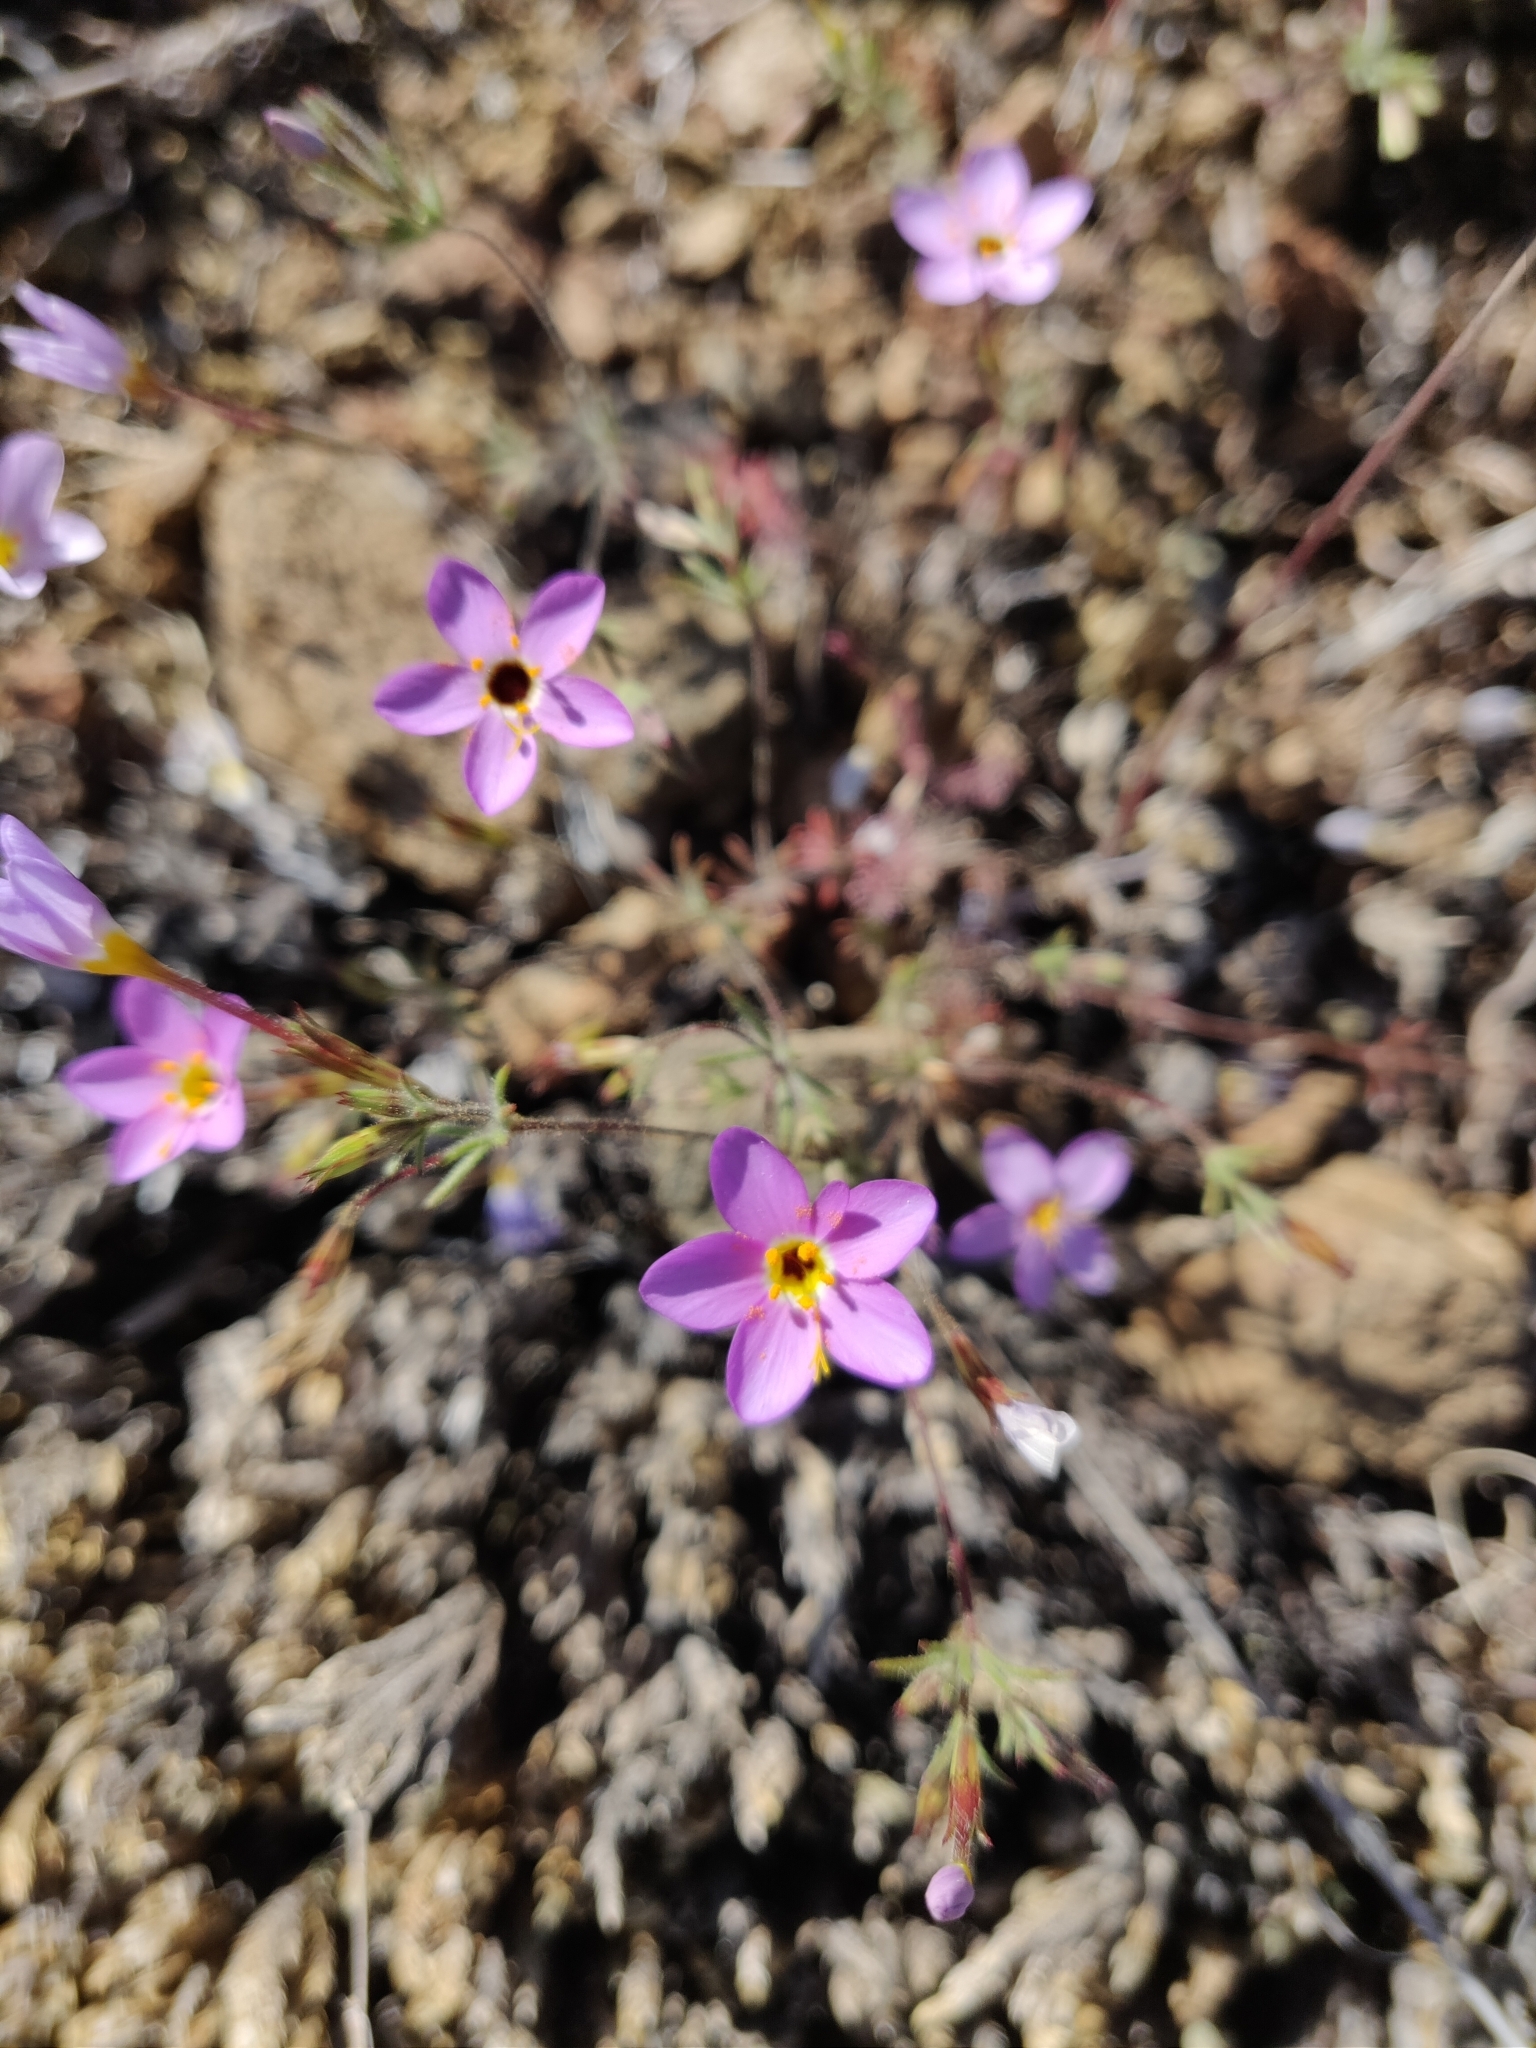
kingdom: Plantae
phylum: Tracheophyta
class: Magnoliopsida
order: Ericales
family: Polemoniaceae
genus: Leptosiphon
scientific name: Leptosiphon ambiguus
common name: Serpentine linanthus
